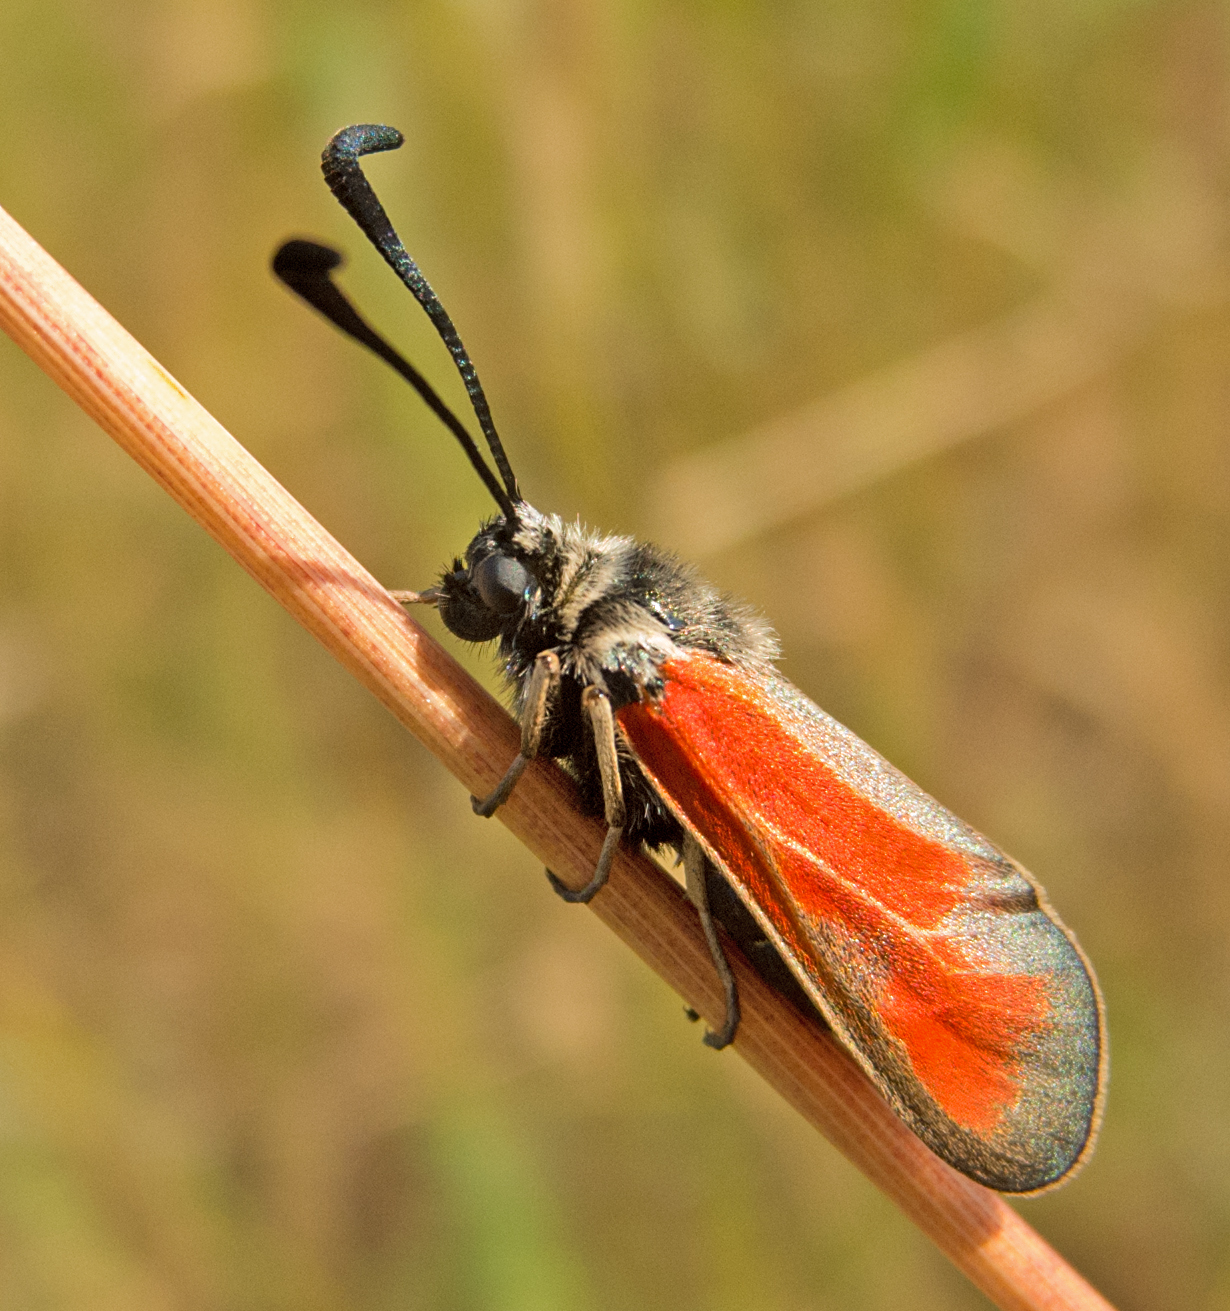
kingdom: Animalia
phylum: Arthropoda
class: Insecta
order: Lepidoptera
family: Zygaenidae
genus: Zygaena
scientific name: Zygaena punctum
